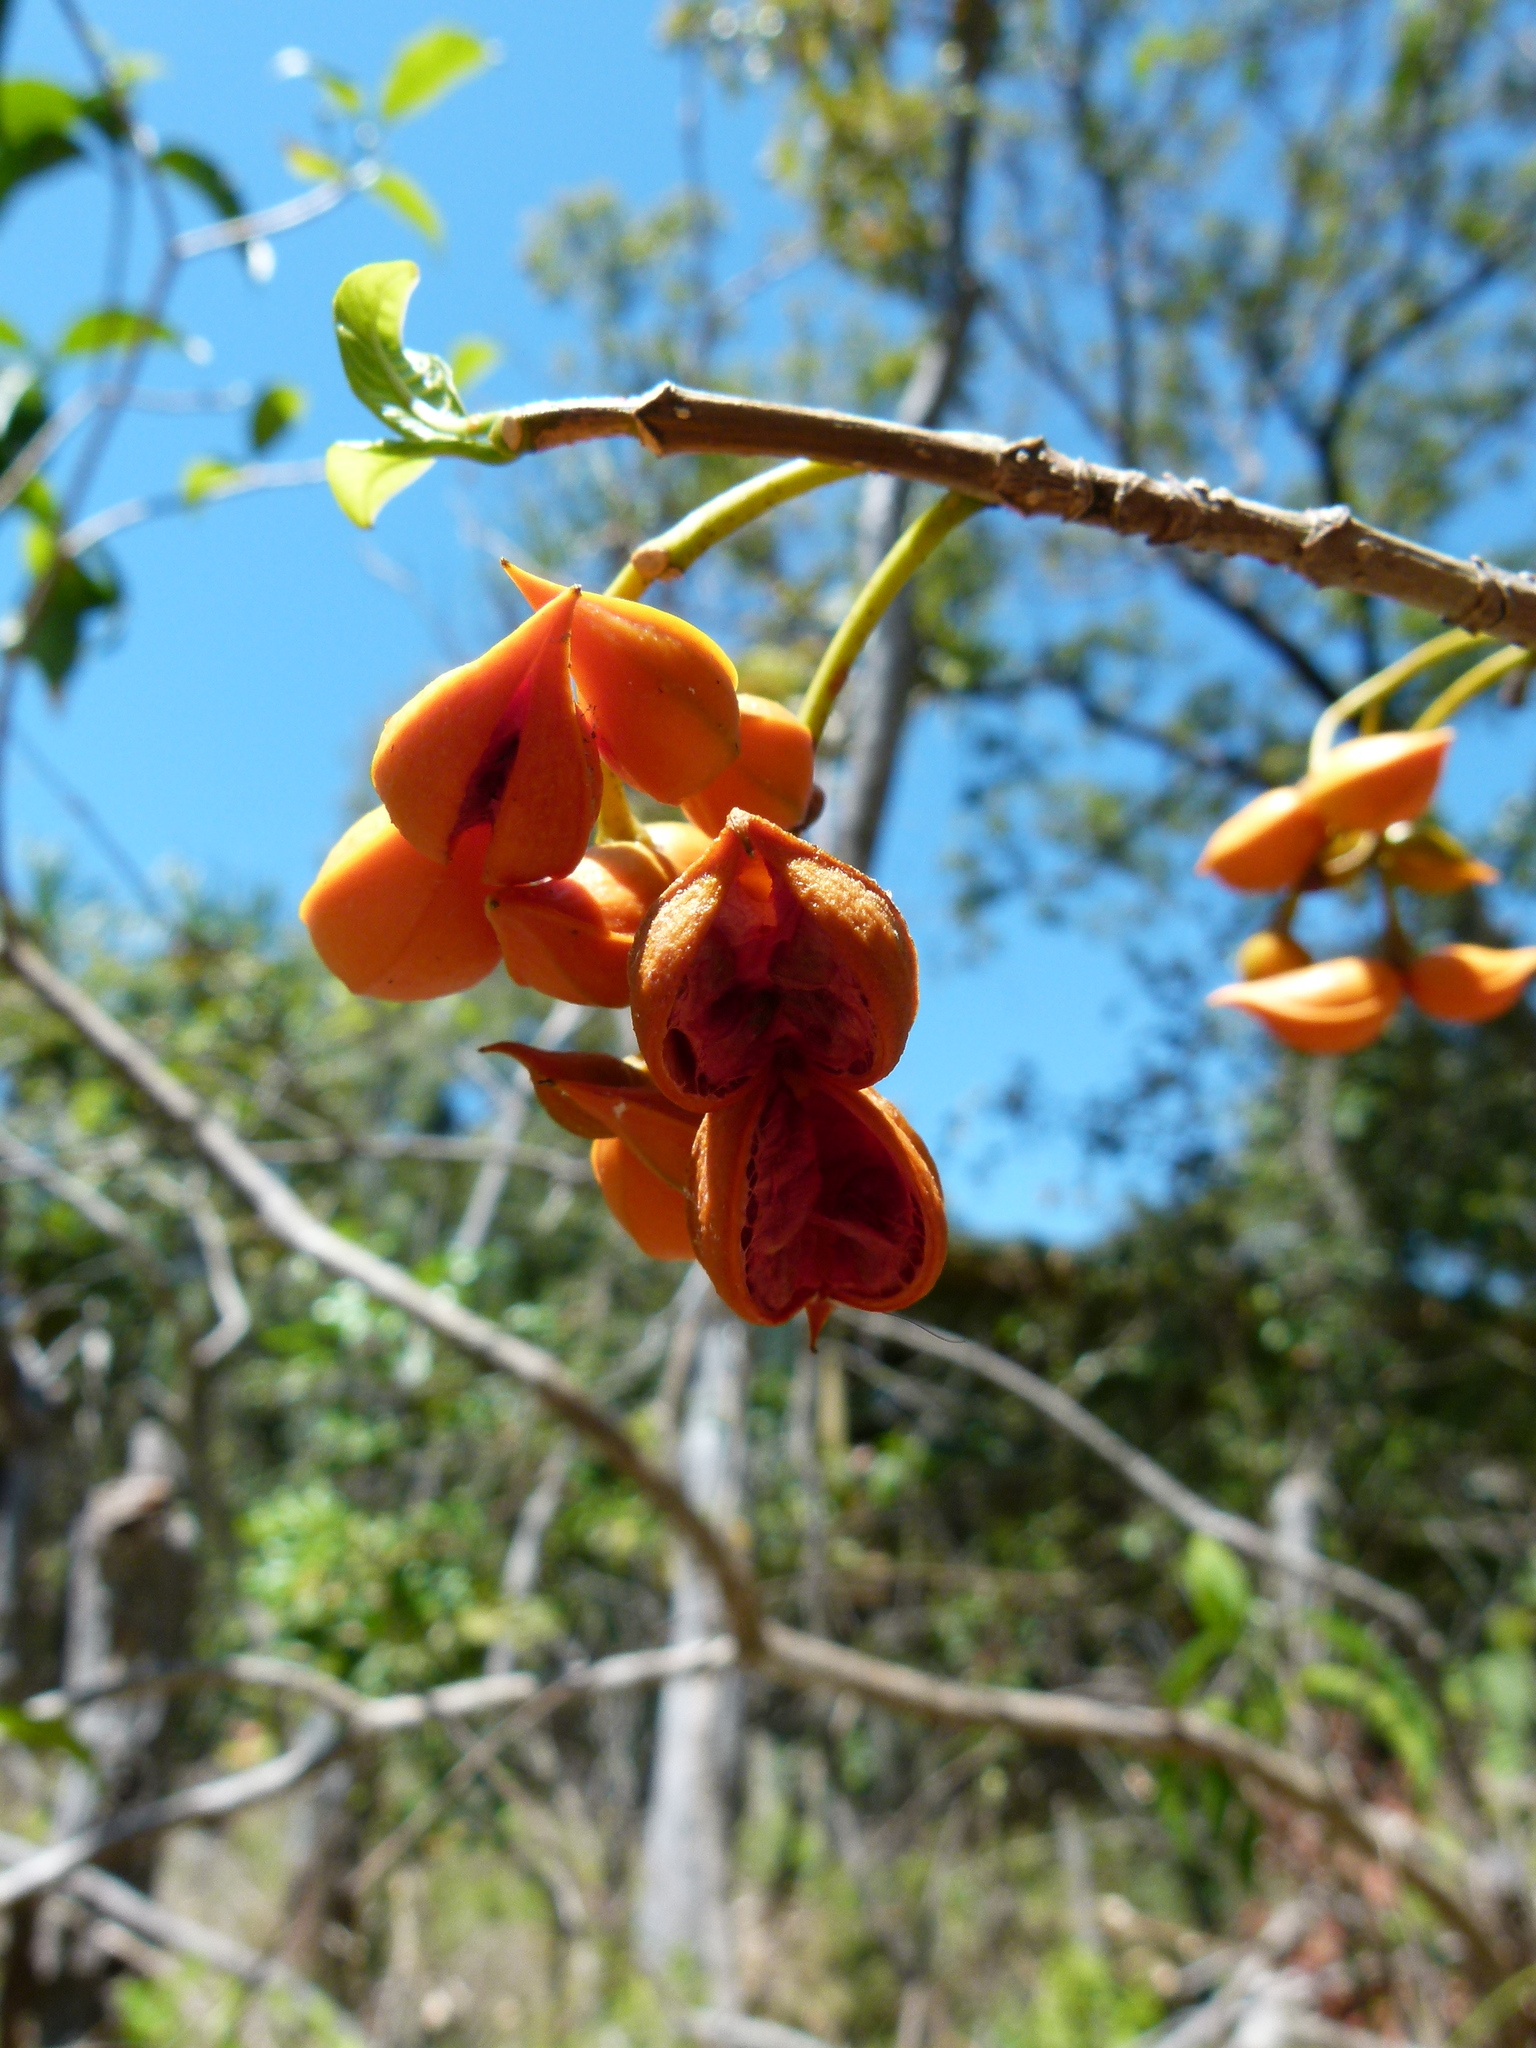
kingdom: Plantae
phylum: Tracheophyta
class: Magnoliopsida
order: Gentianales
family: Apocynaceae
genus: Tabernaemontana
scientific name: Tabernaemontana pandacaqui
